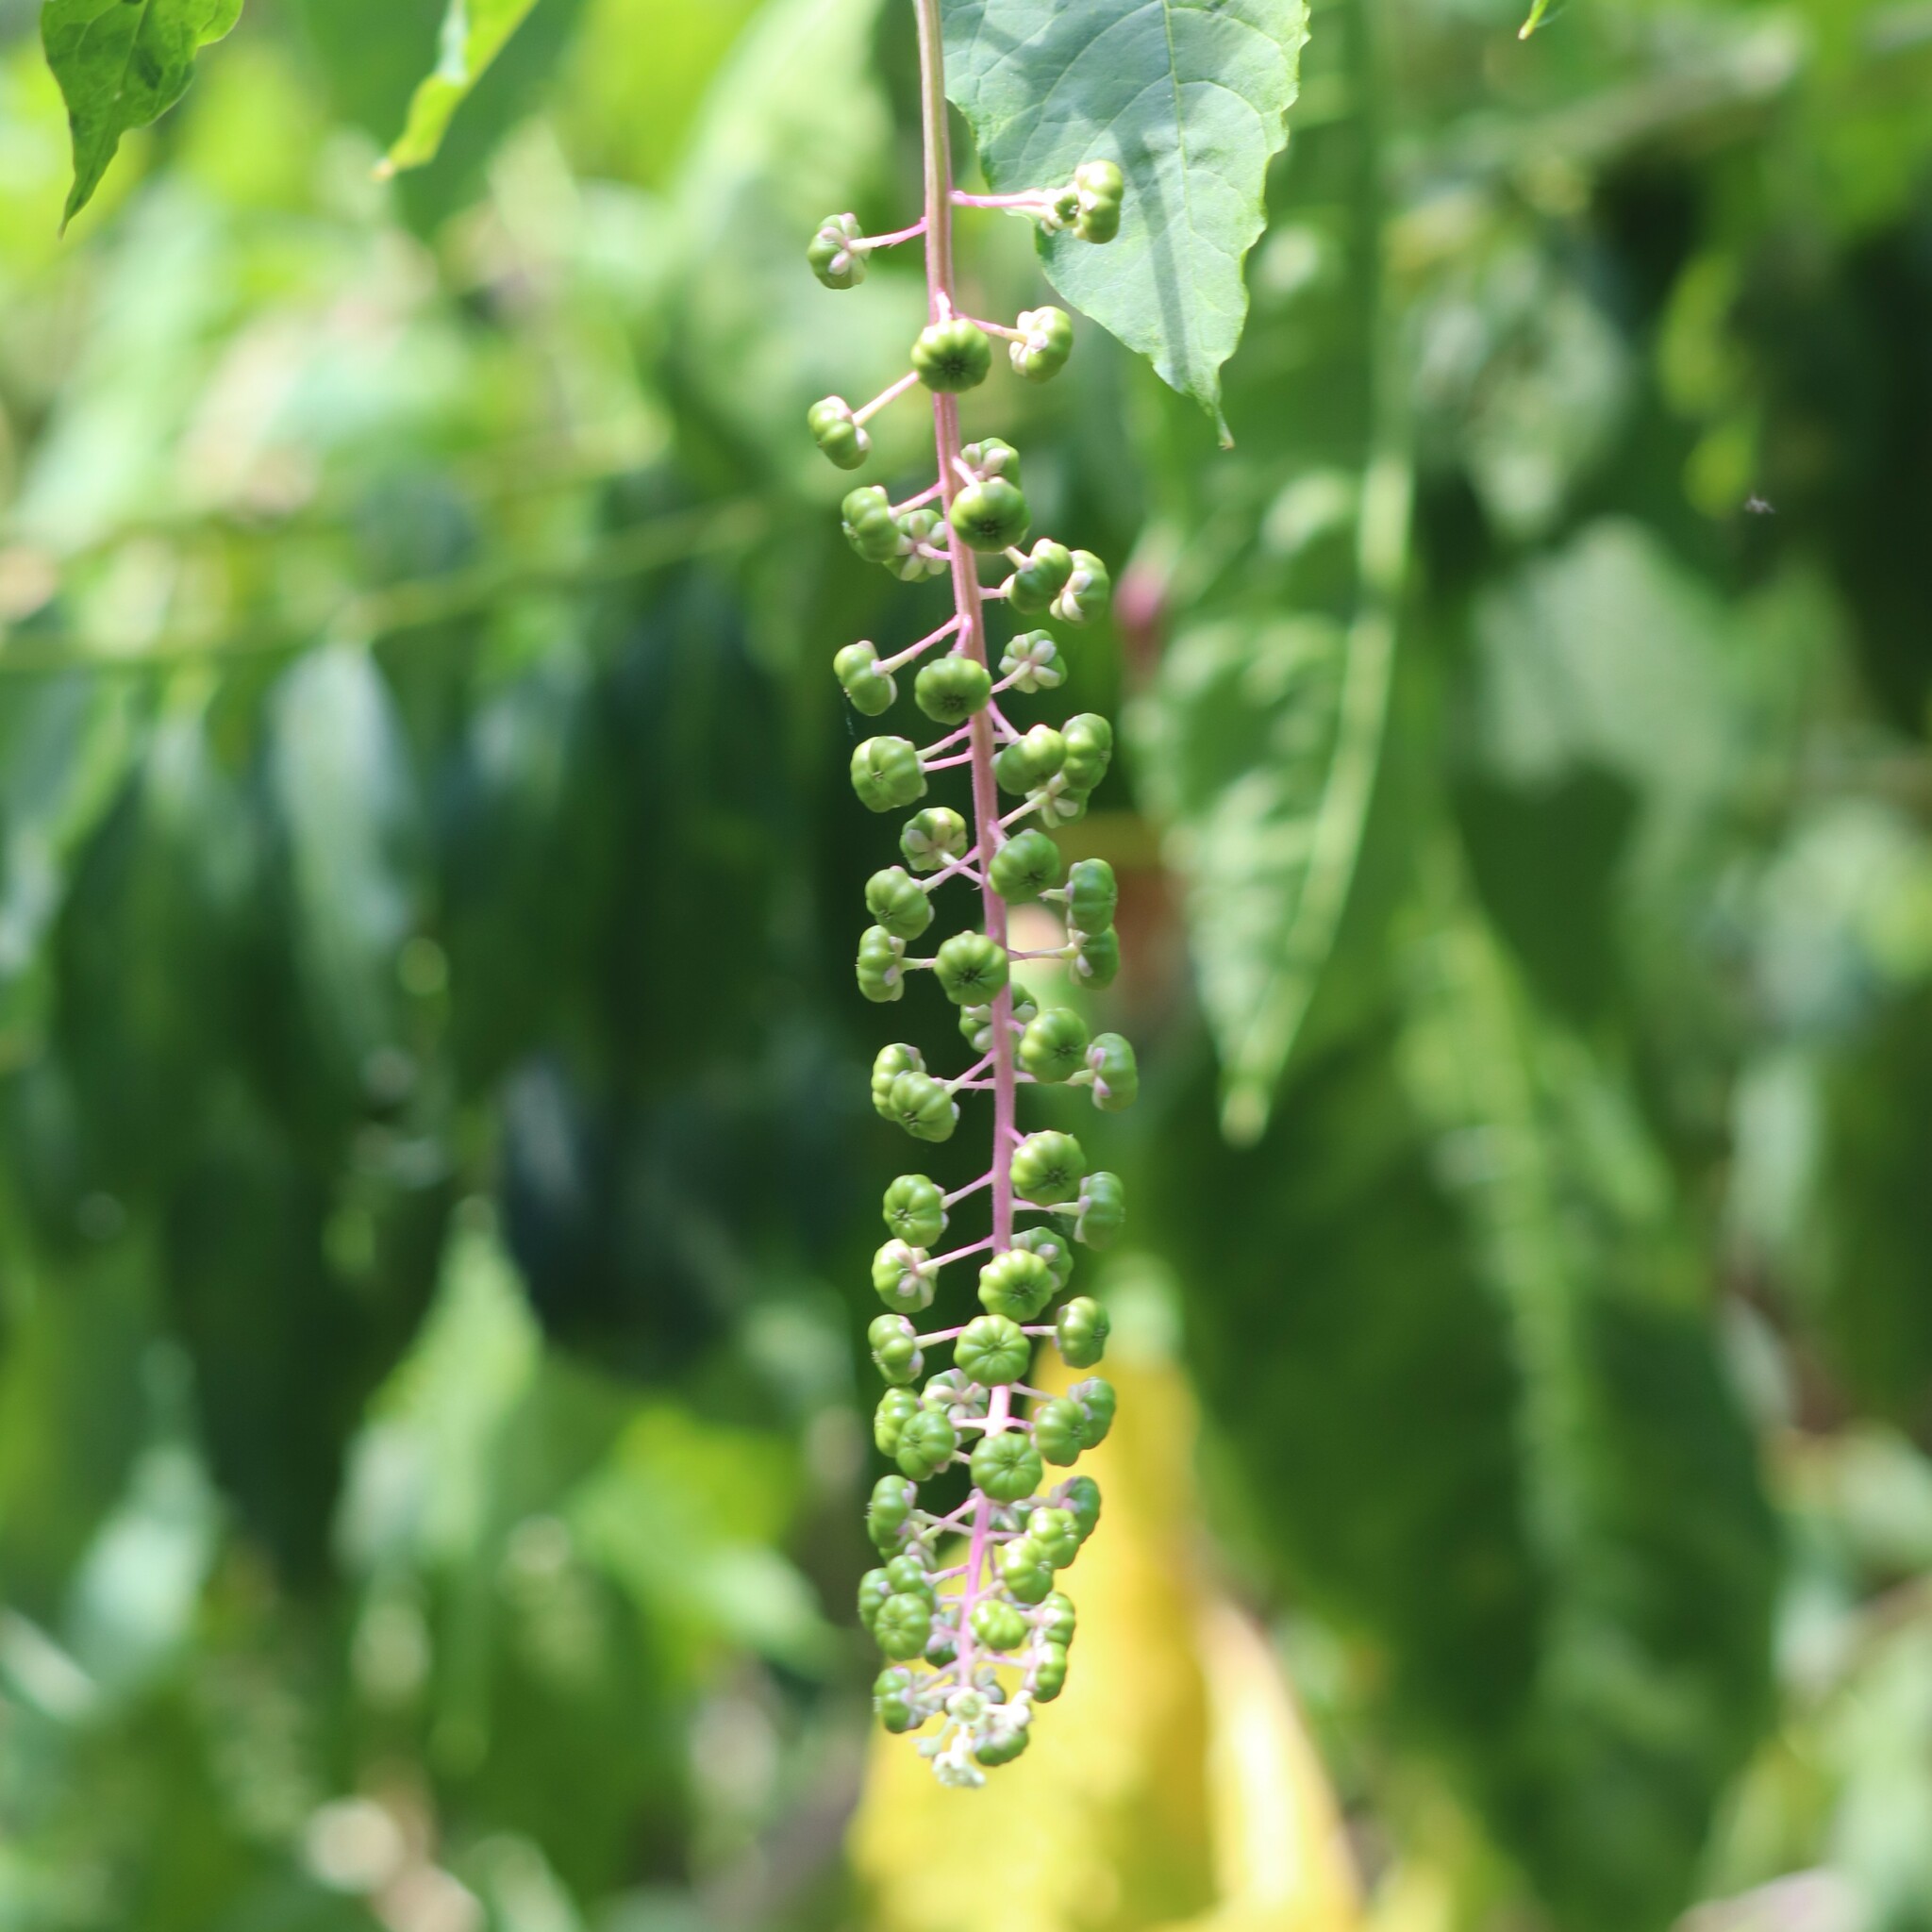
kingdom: Plantae
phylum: Tracheophyta
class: Magnoliopsida
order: Caryophyllales
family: Phytolaccaceae
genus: Phytolacca
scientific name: Phytolacca americana
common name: American pokeweed
